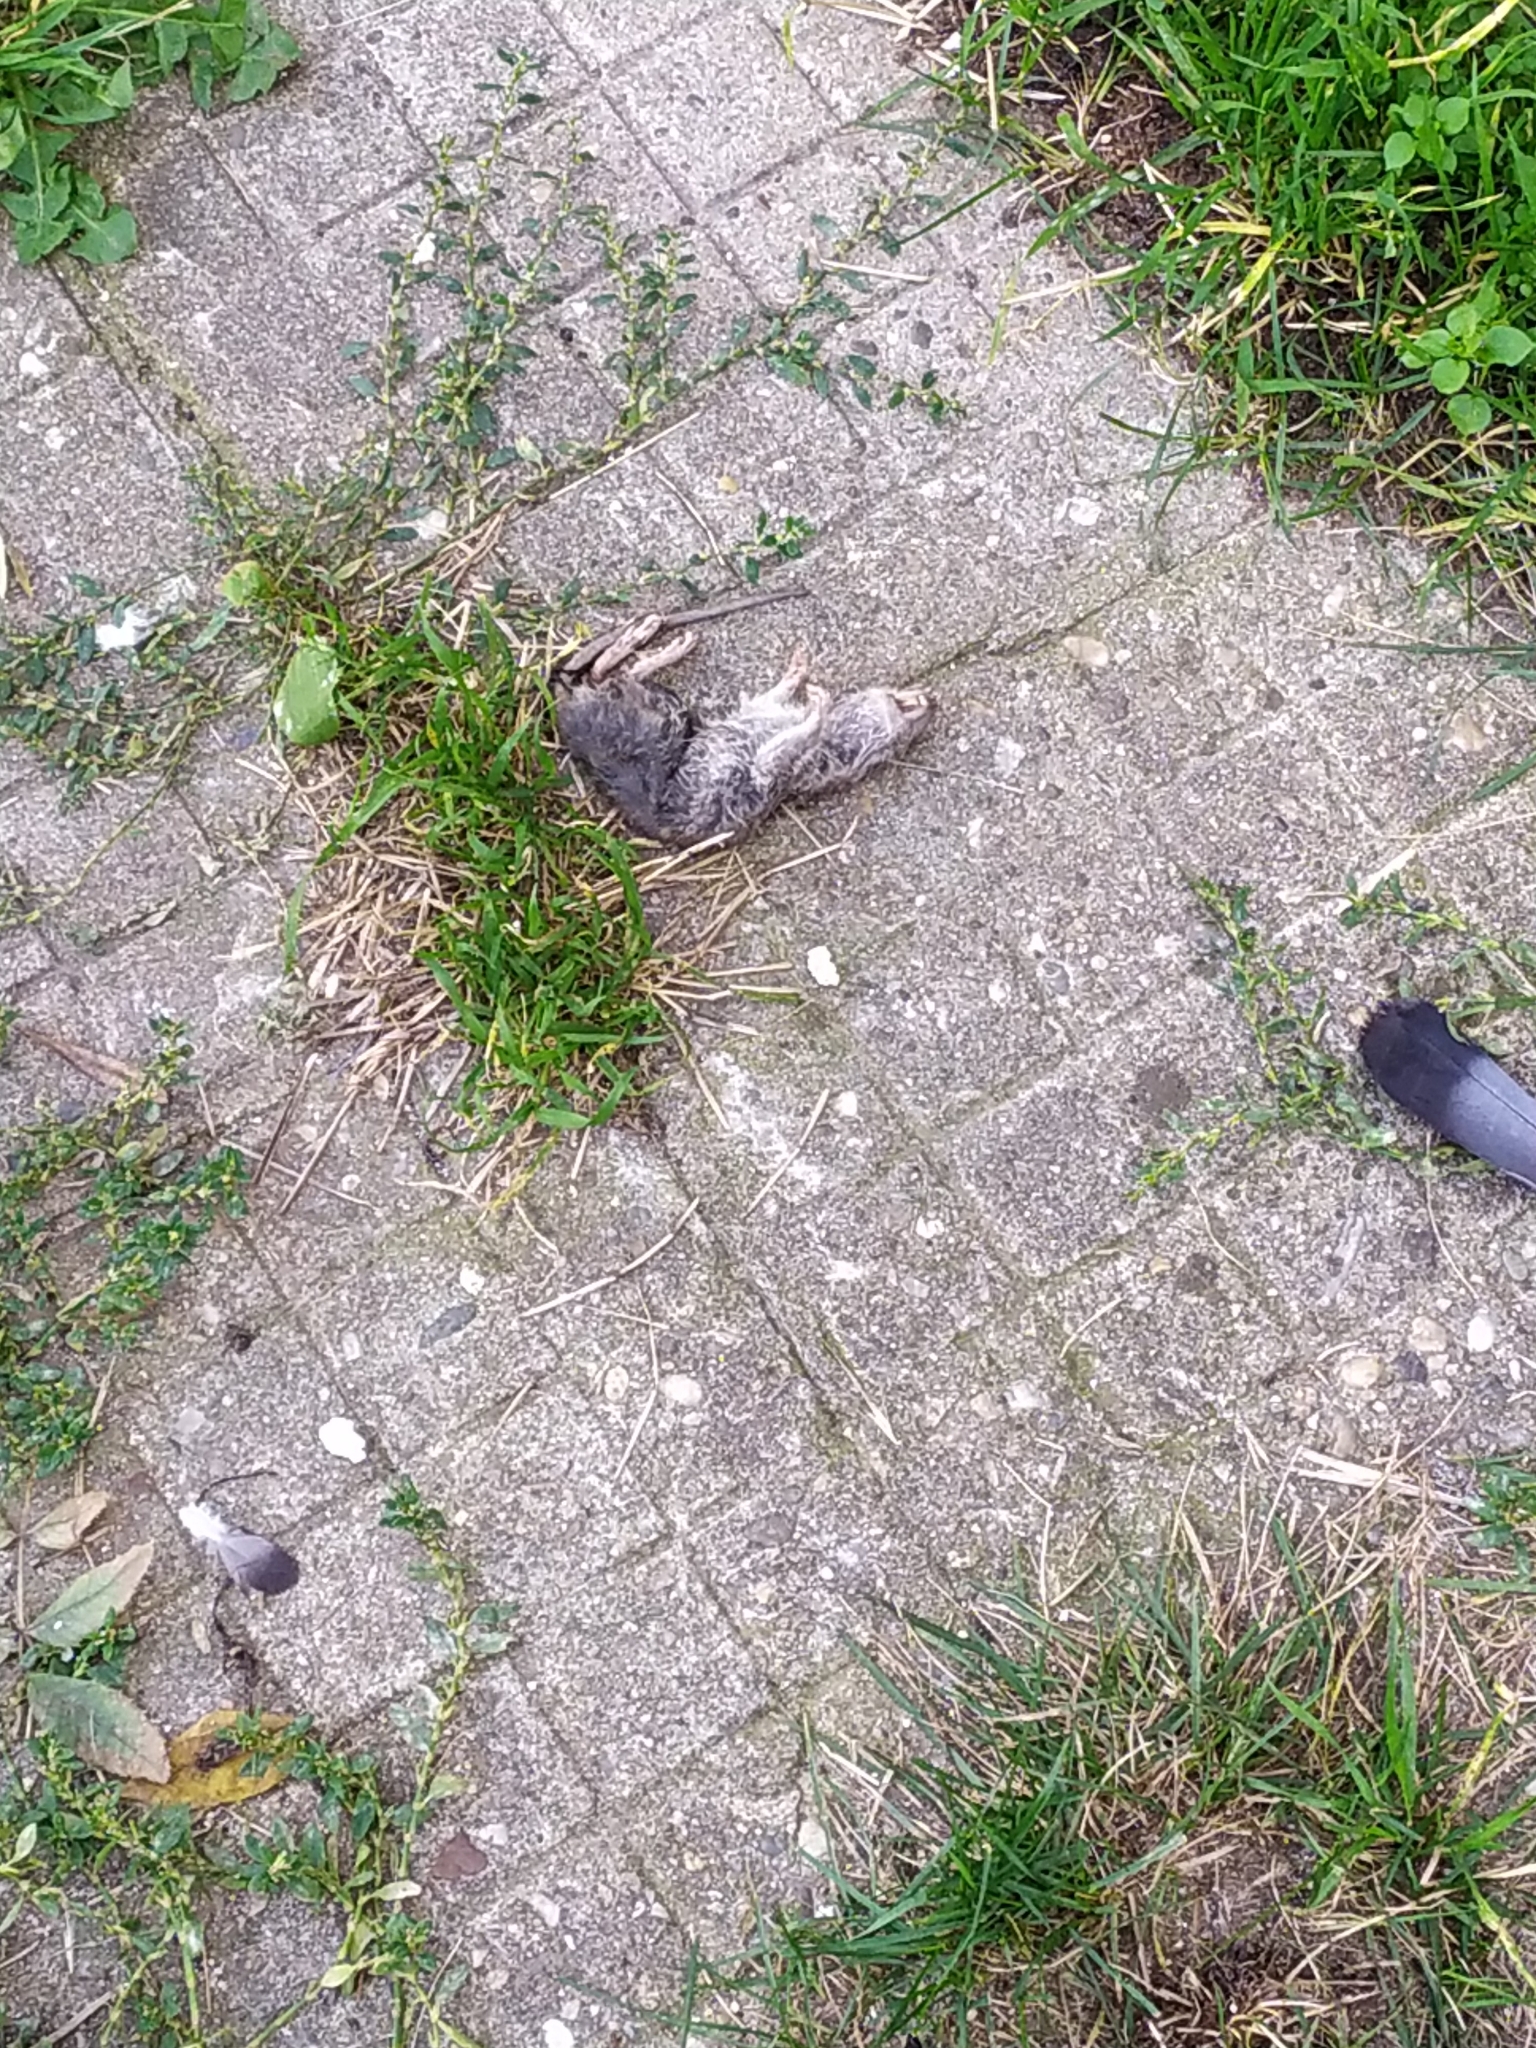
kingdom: Animalia
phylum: Chordata
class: Mammalia
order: Rodentia
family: Muridae
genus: Rattus
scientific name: Rattus norvegicus
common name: Brown rat
